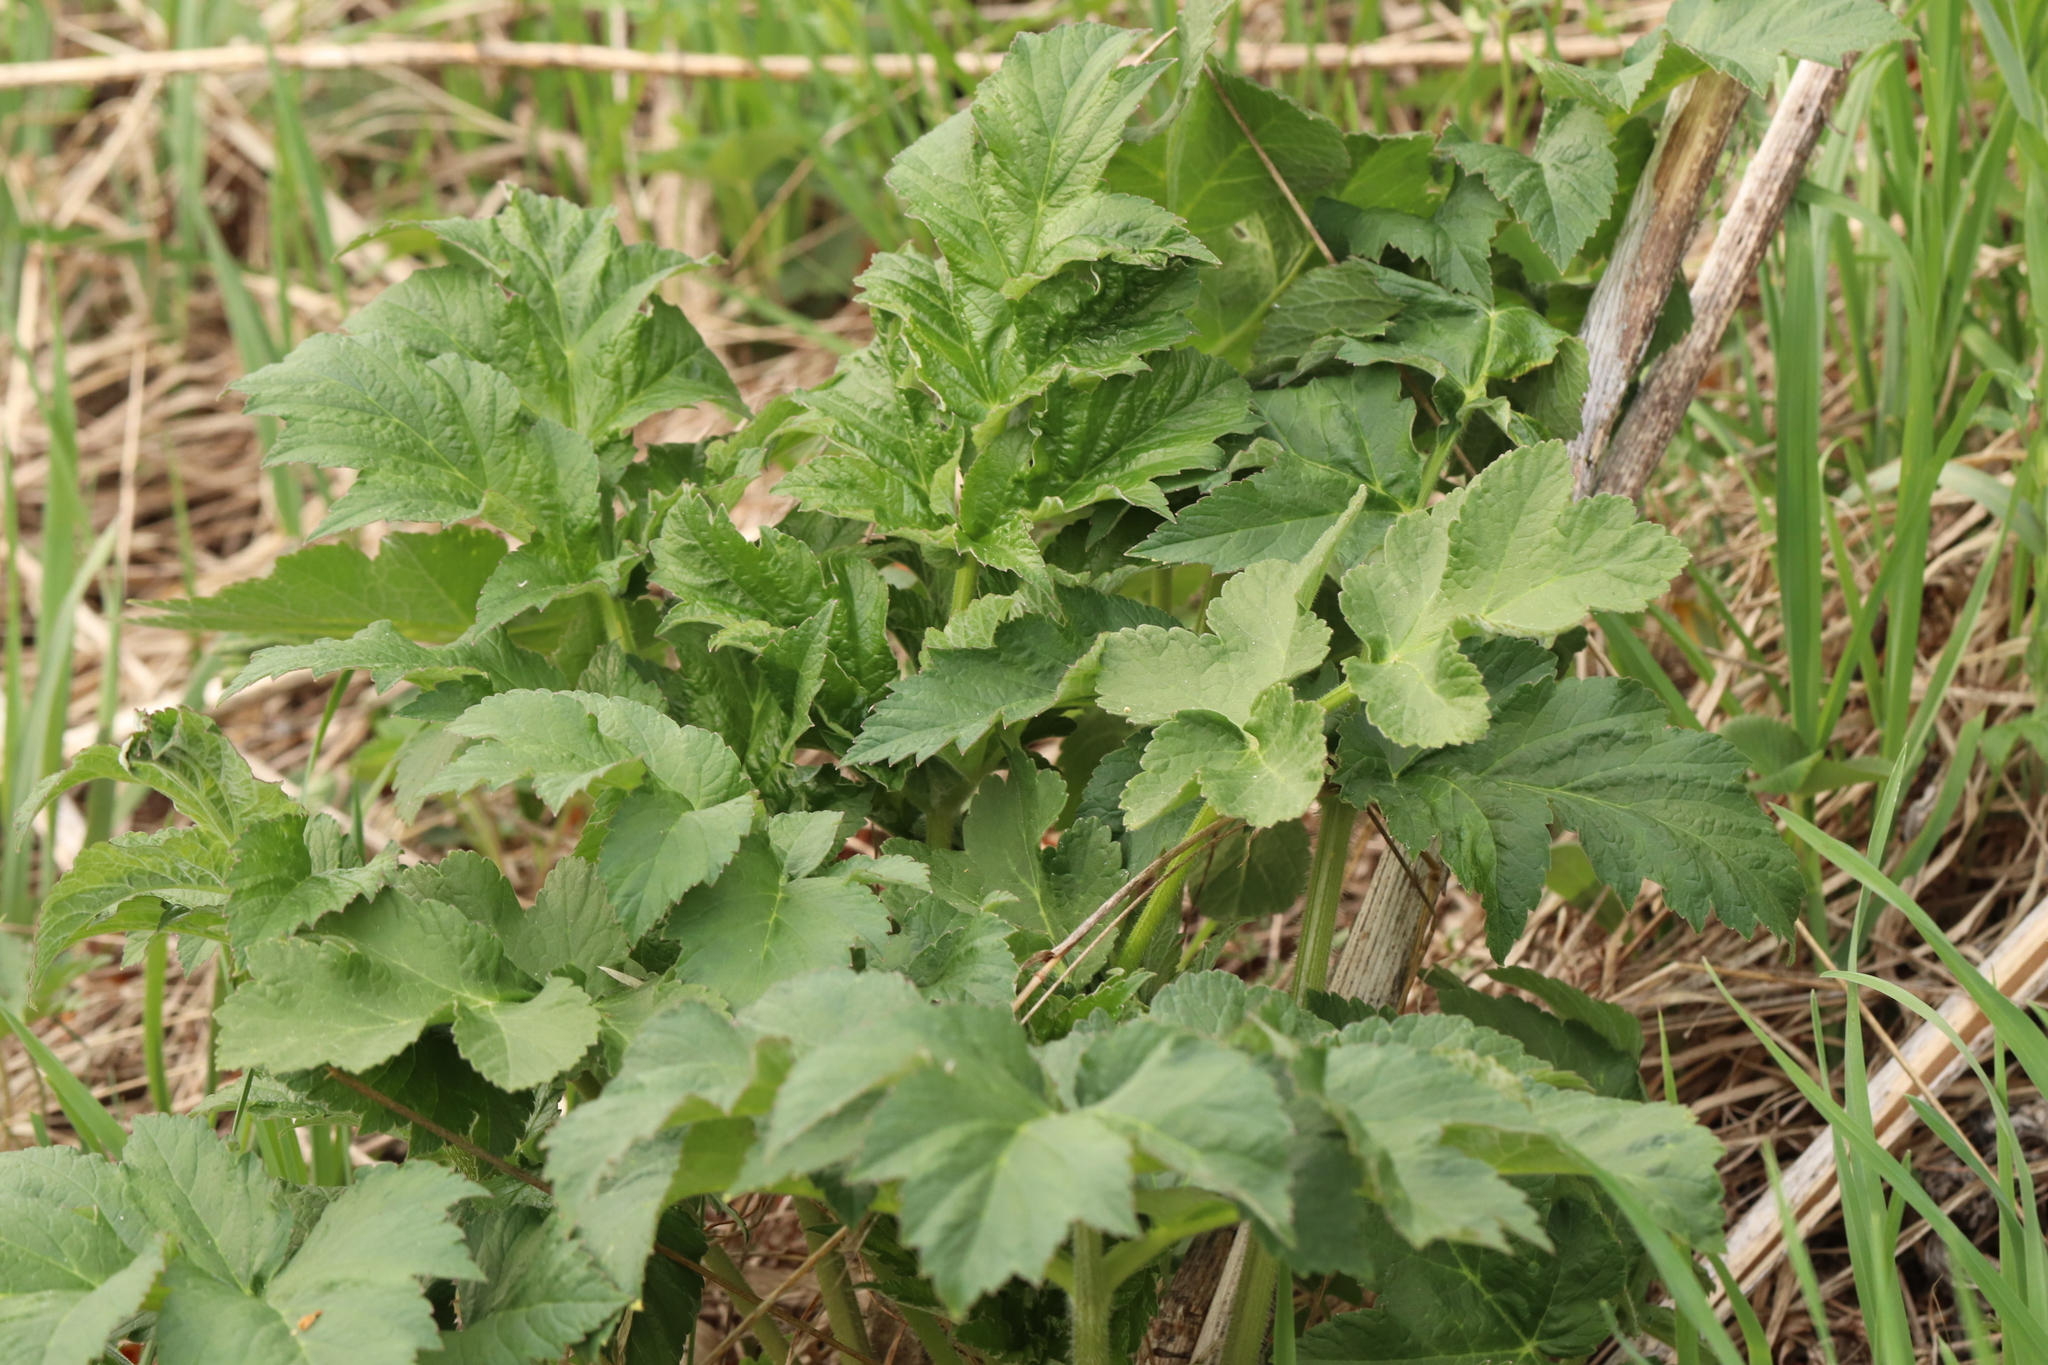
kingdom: Plantae
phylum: Tracheophyta
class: Magnoliopsida
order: Apiales
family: Apiaceae
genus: Heracleum
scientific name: Heracleum dissectum
